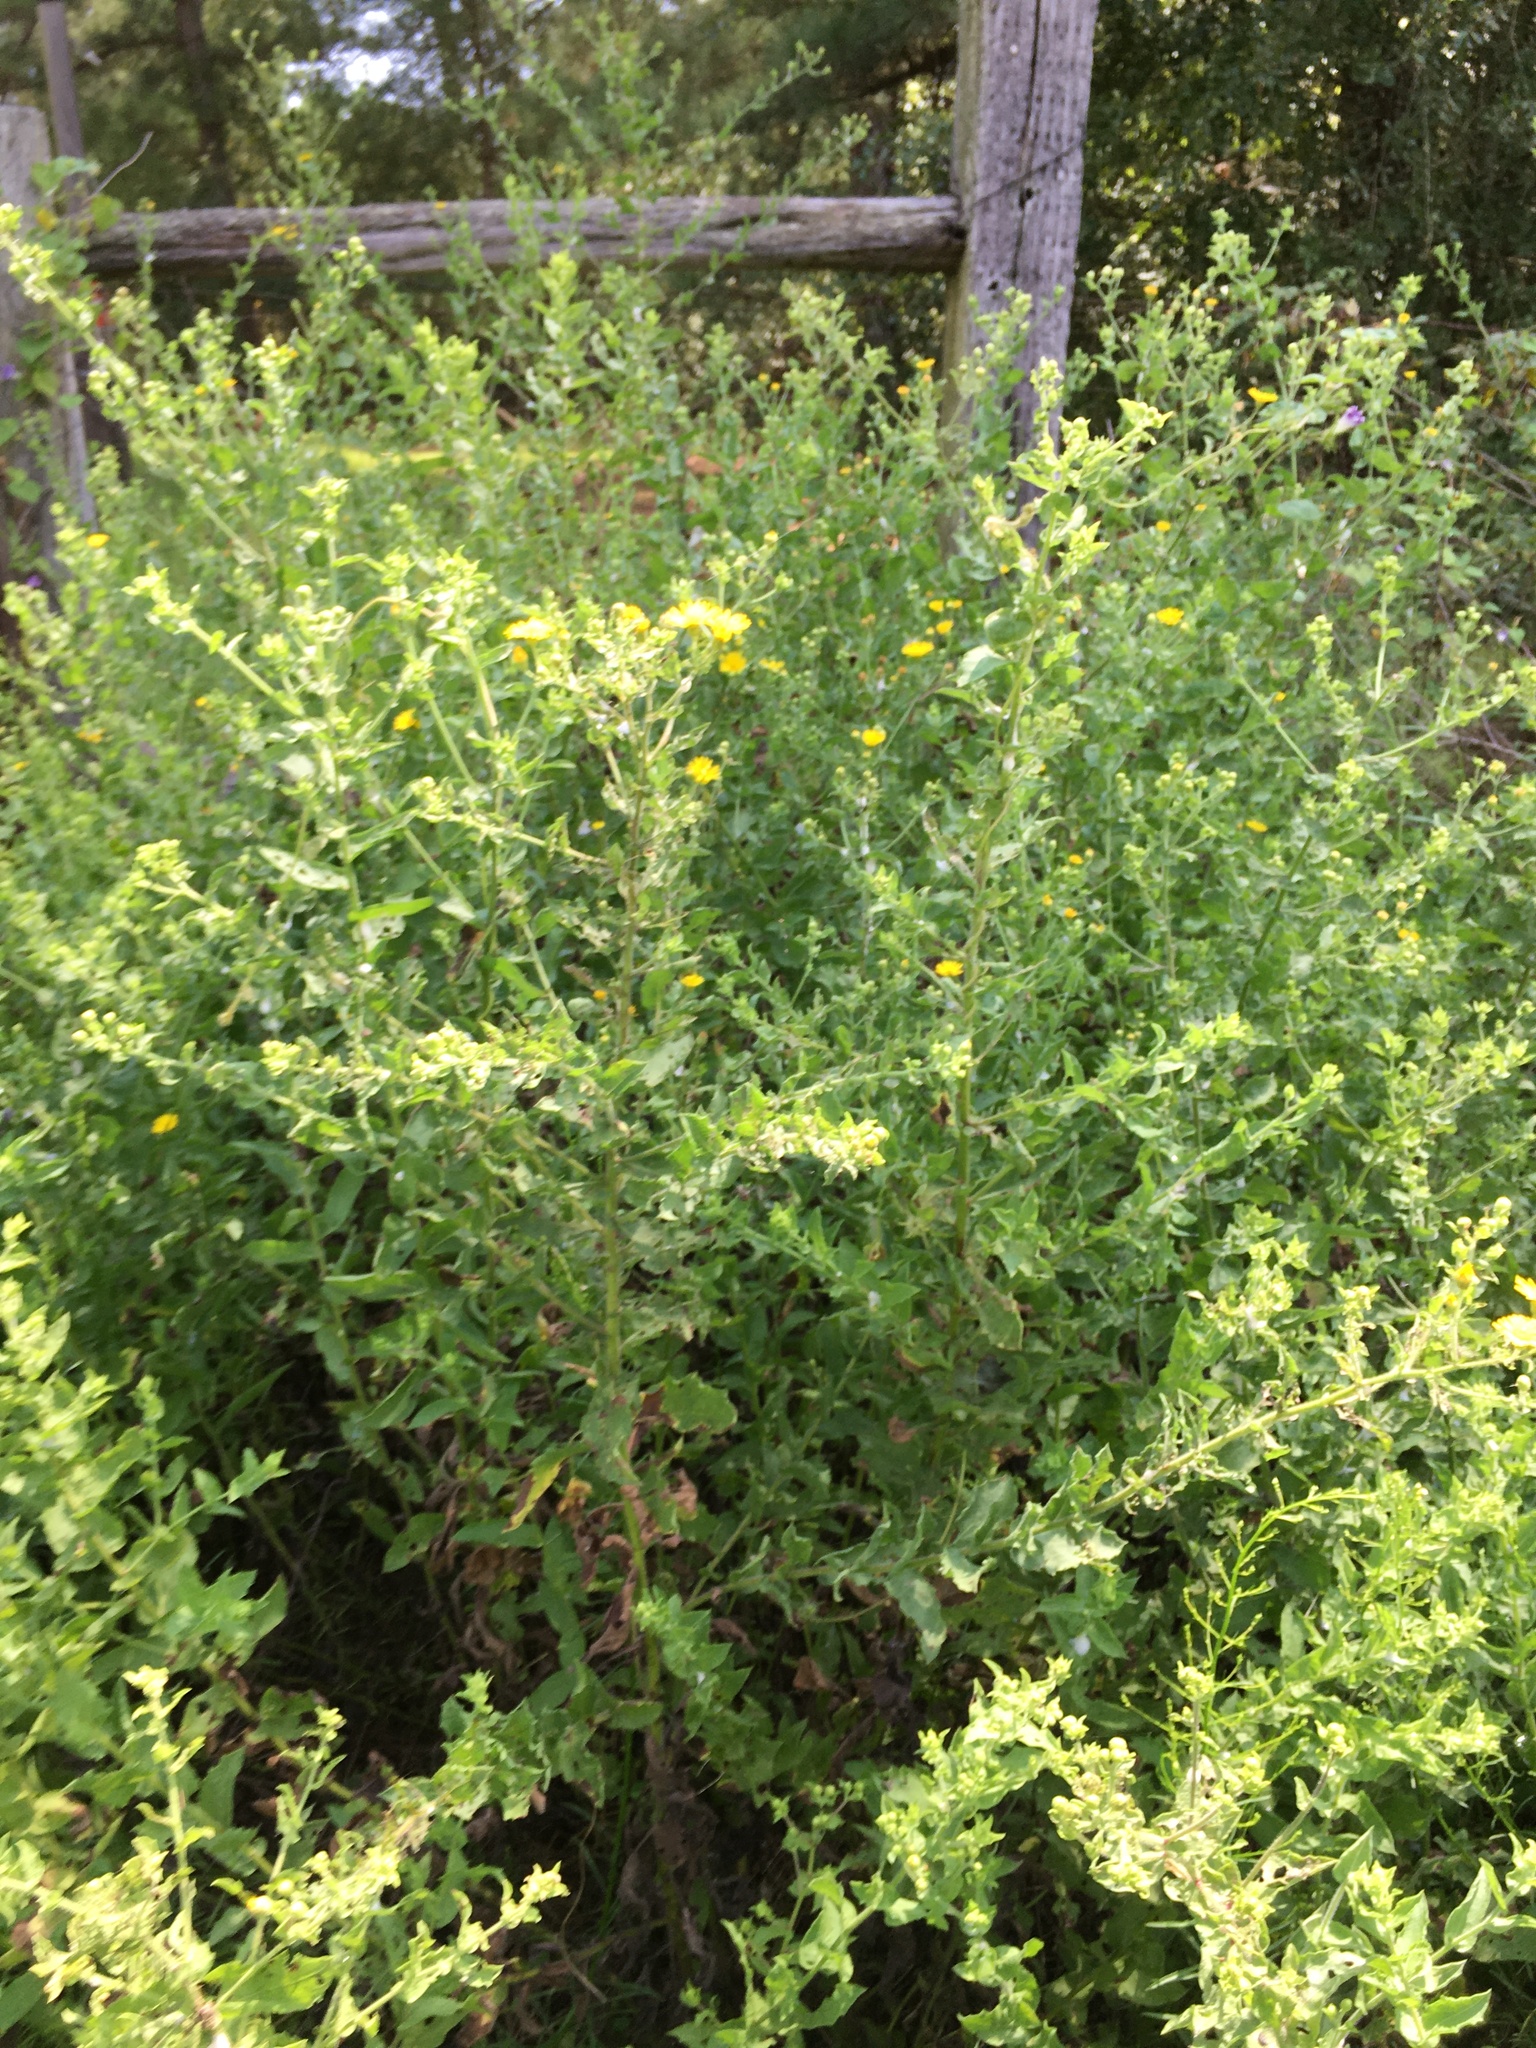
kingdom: Plantae
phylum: Tracheophyta
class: Magnoliopsida
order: Asterales
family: Asteraceae
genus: Heterotheca
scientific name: Heterotheca subaxillaris
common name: Camphorweed
